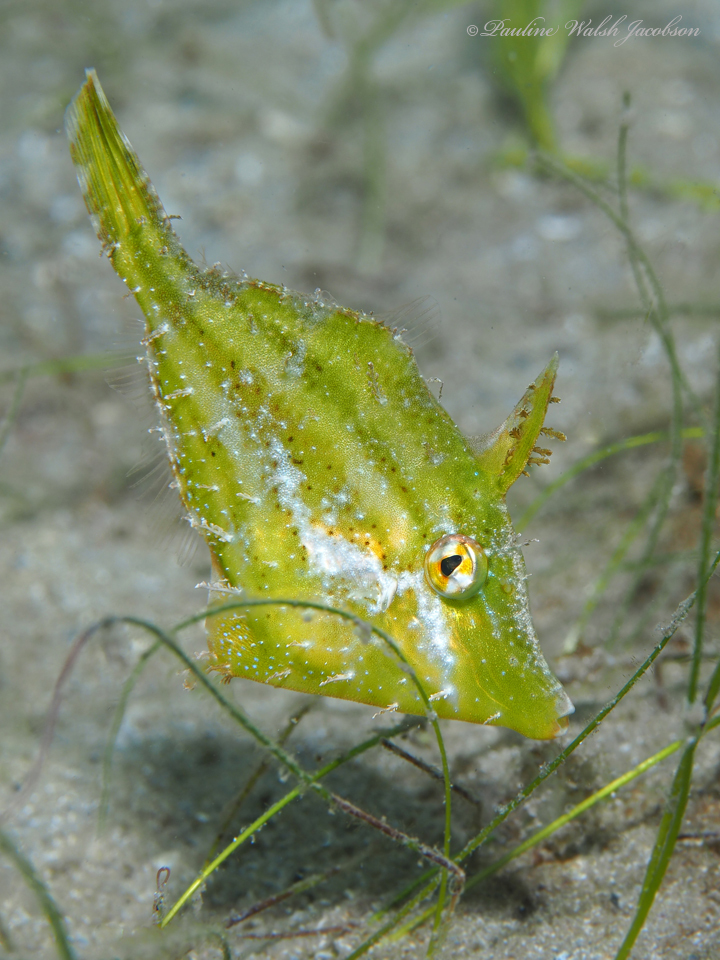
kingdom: Animalia
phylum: Chordata
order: Tetraodontiformes
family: Monacanthidae
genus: Monacanthus
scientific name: Monacanthus ciliatus
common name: Fringed filefish
